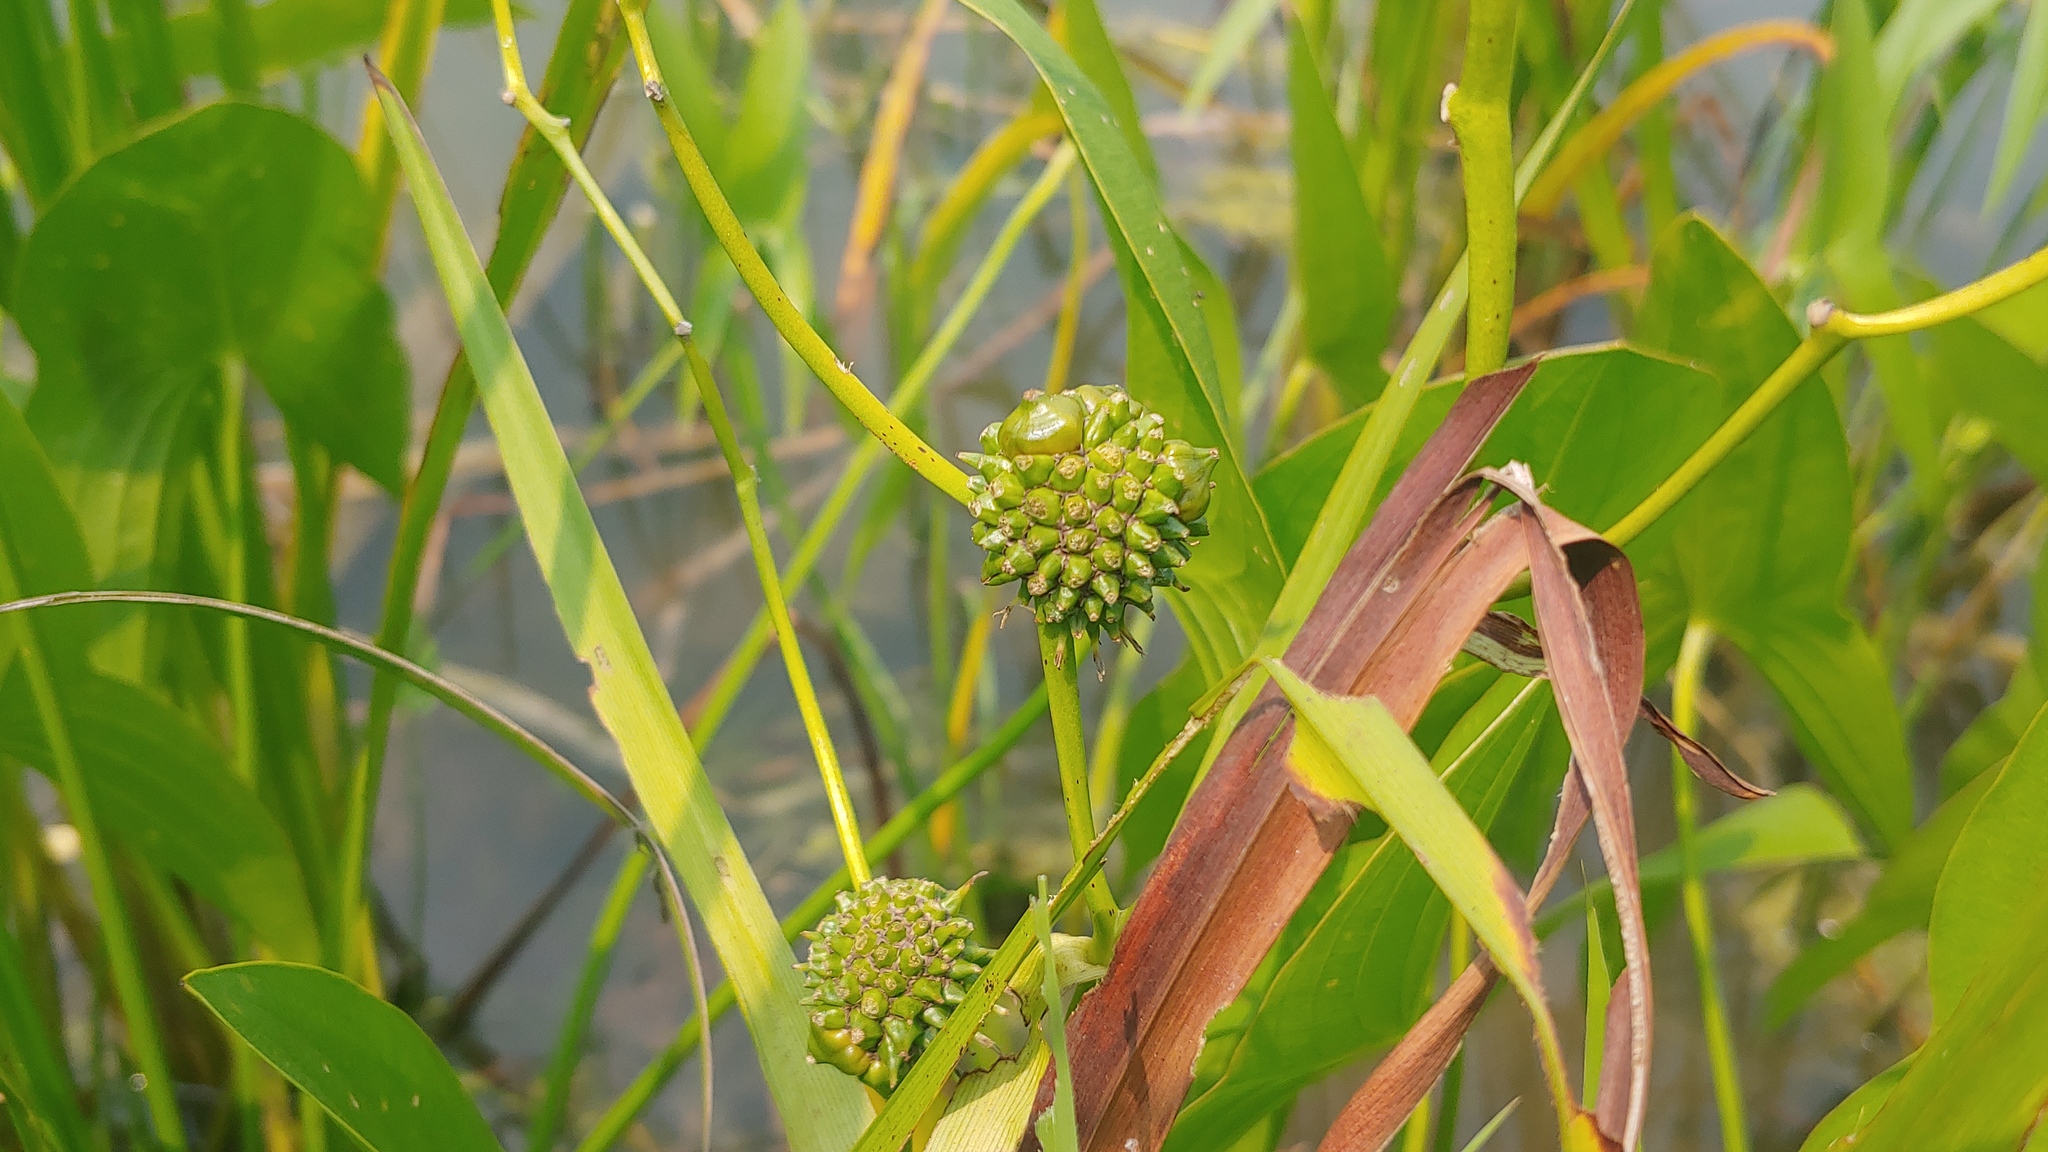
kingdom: Plantae
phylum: Tracheophyta
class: Liliopsida
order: Poales
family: Typhaceae
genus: Sparganium
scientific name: Sparganium eurycarpum
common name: Broad-fruited burreed
